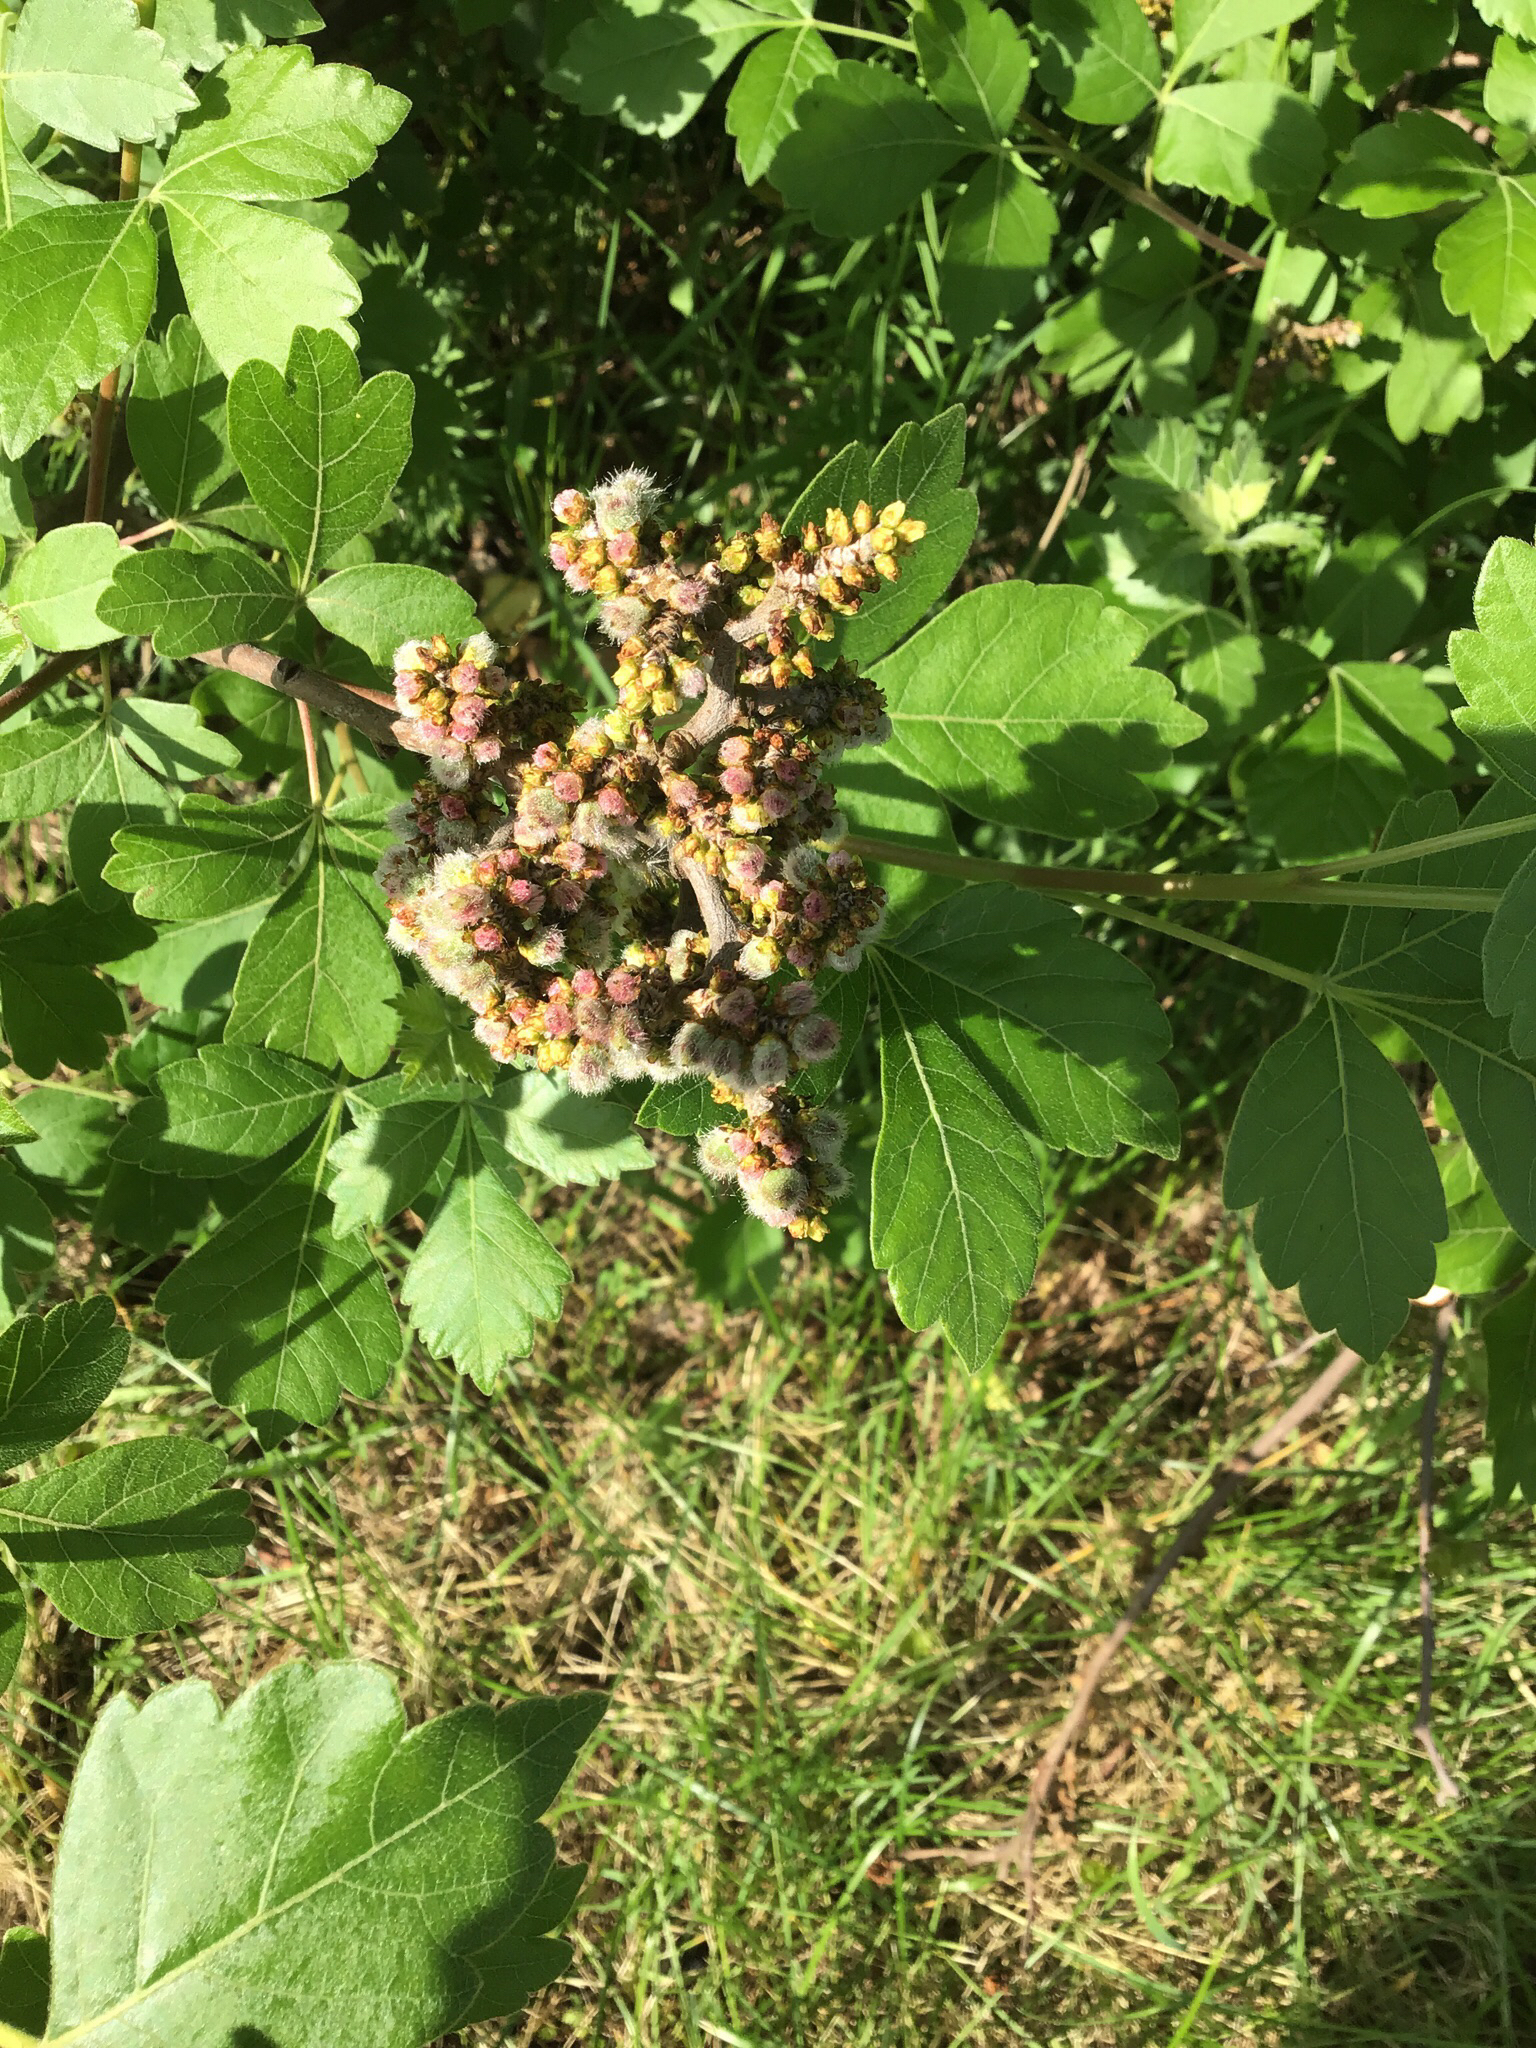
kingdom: Plantae
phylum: Tracheophyta
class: Magnoliopsida
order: Sapindales
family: Anacardiaceae
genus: Rhus
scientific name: Rhus aromatica
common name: Aromatic sumac
